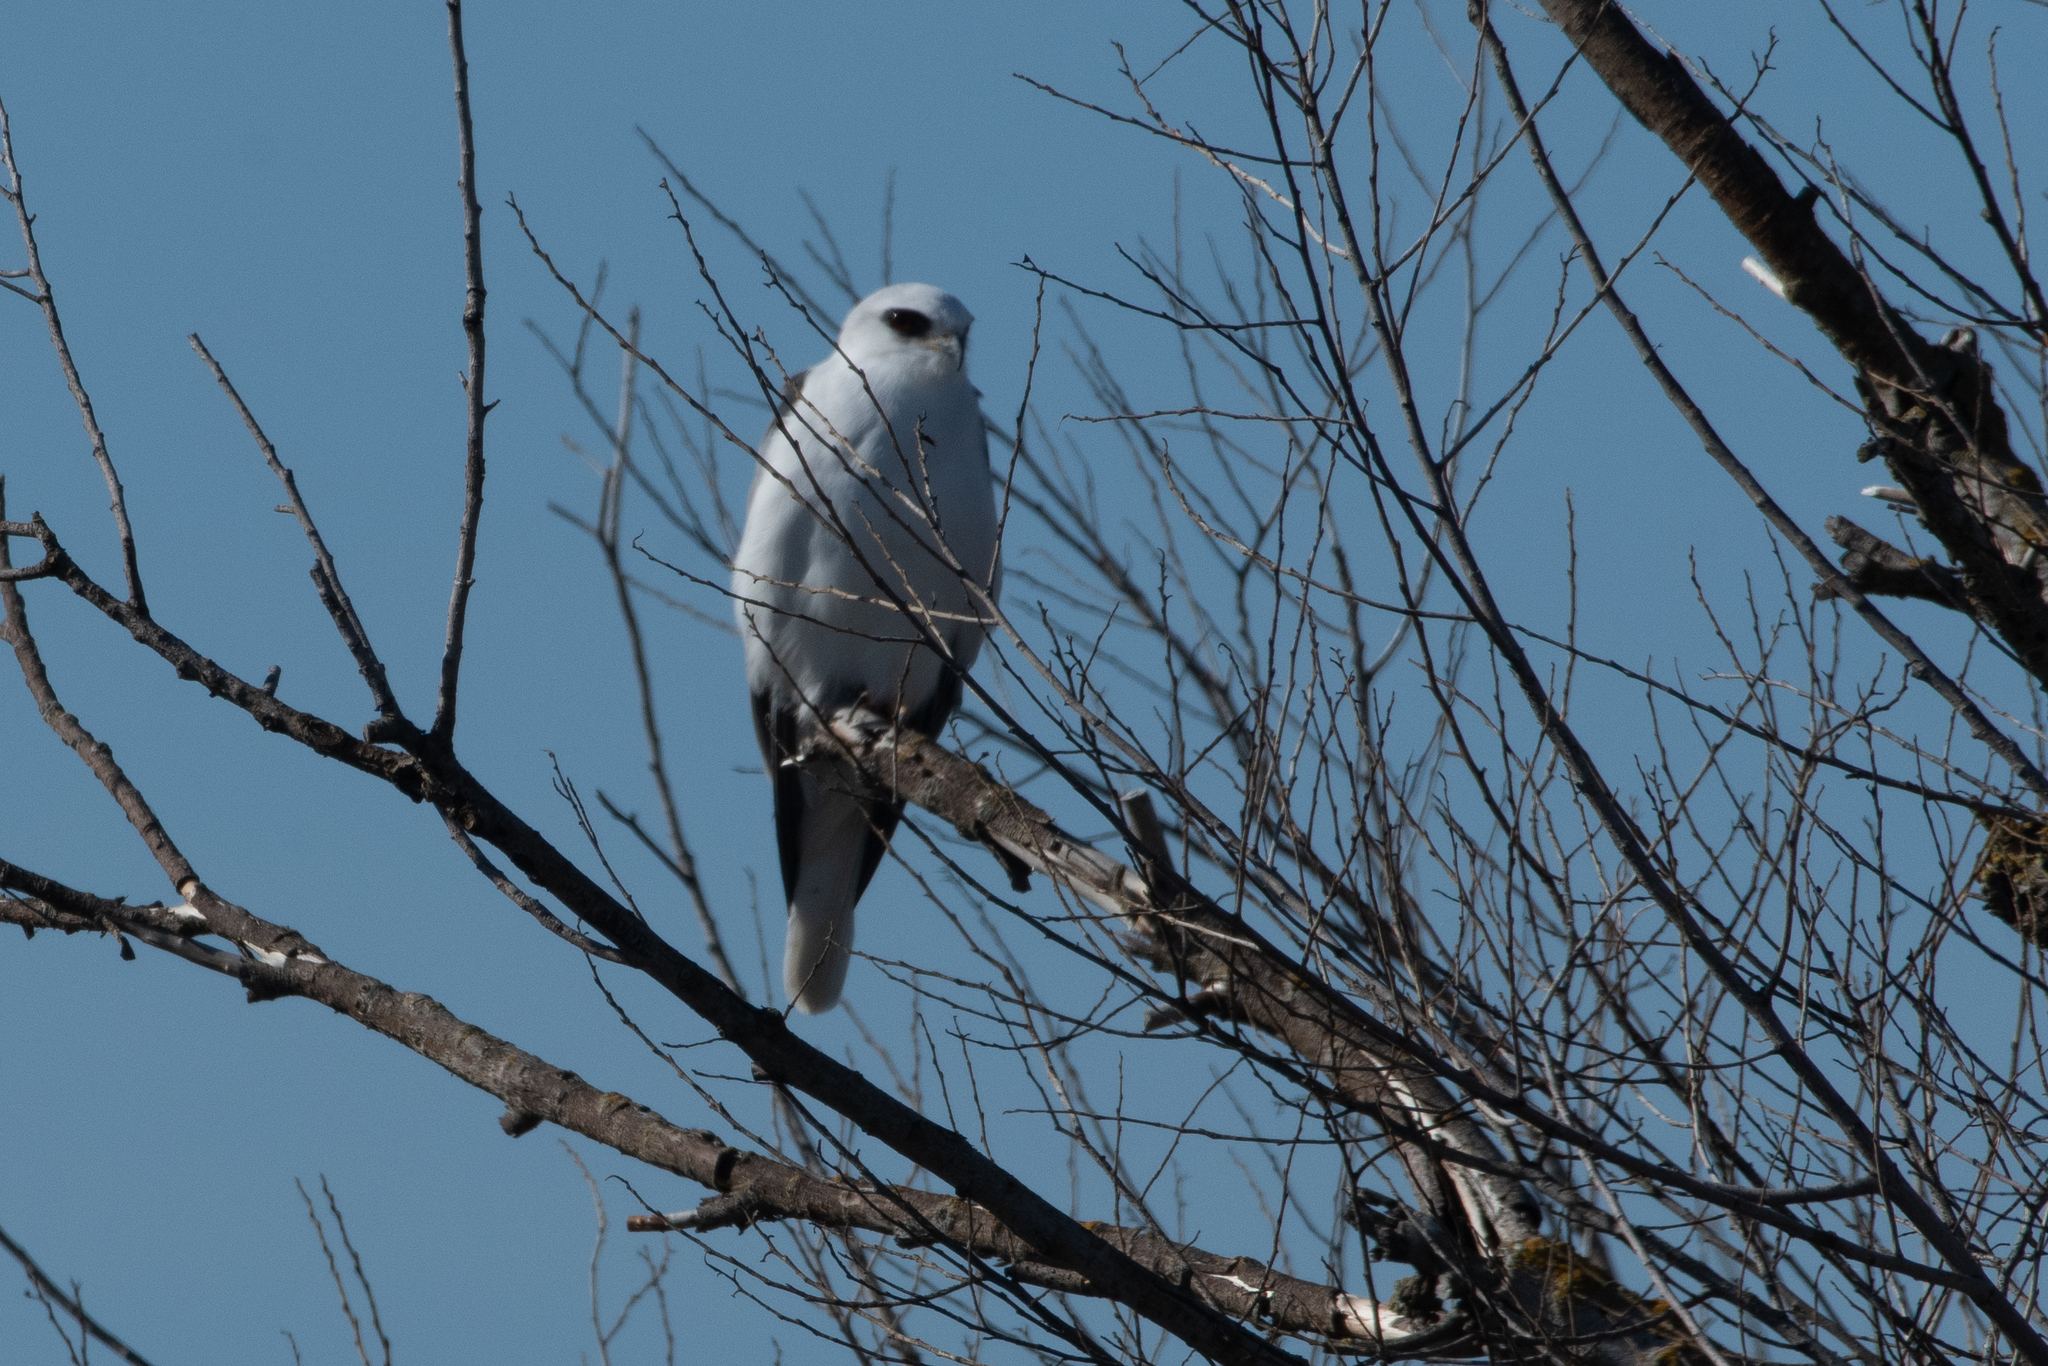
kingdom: Animalia
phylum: Chordata
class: Aves
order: Accipitriformes
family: Accipitridae
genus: Elanus
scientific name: Elanus leucurus
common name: White-tailed kite
